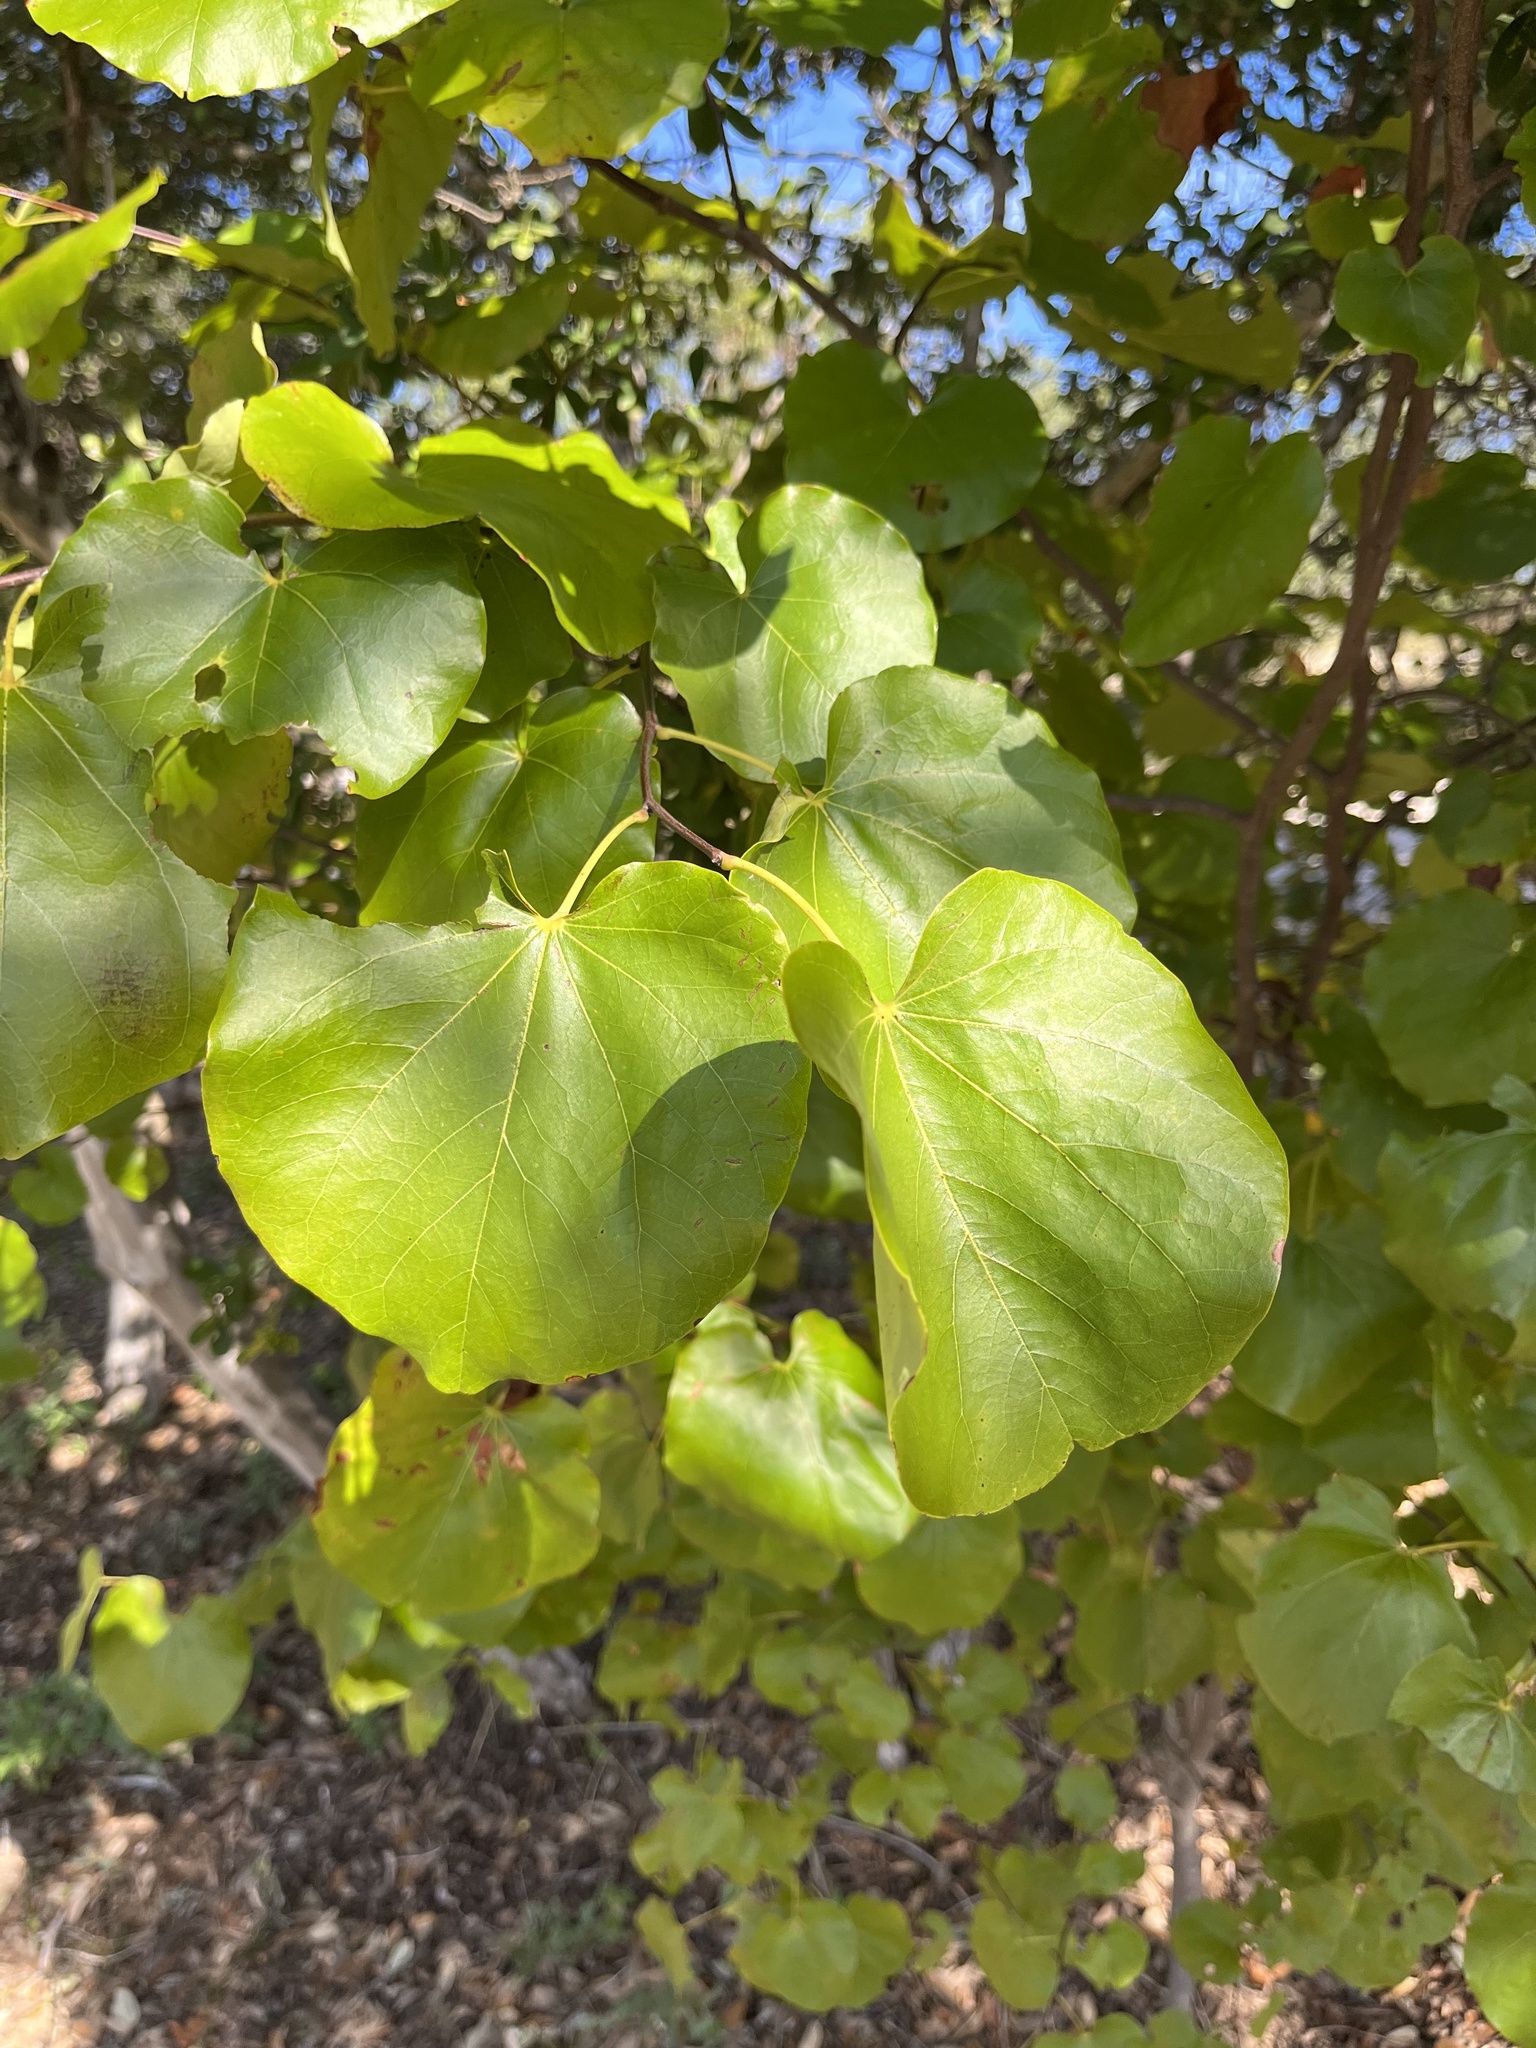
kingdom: Plantae
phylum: Tracheophyta
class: Magnoliopsida
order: Fabales
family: Fabaceae
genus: Cercis
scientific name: Cercis canadensis
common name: Eastern redbud
